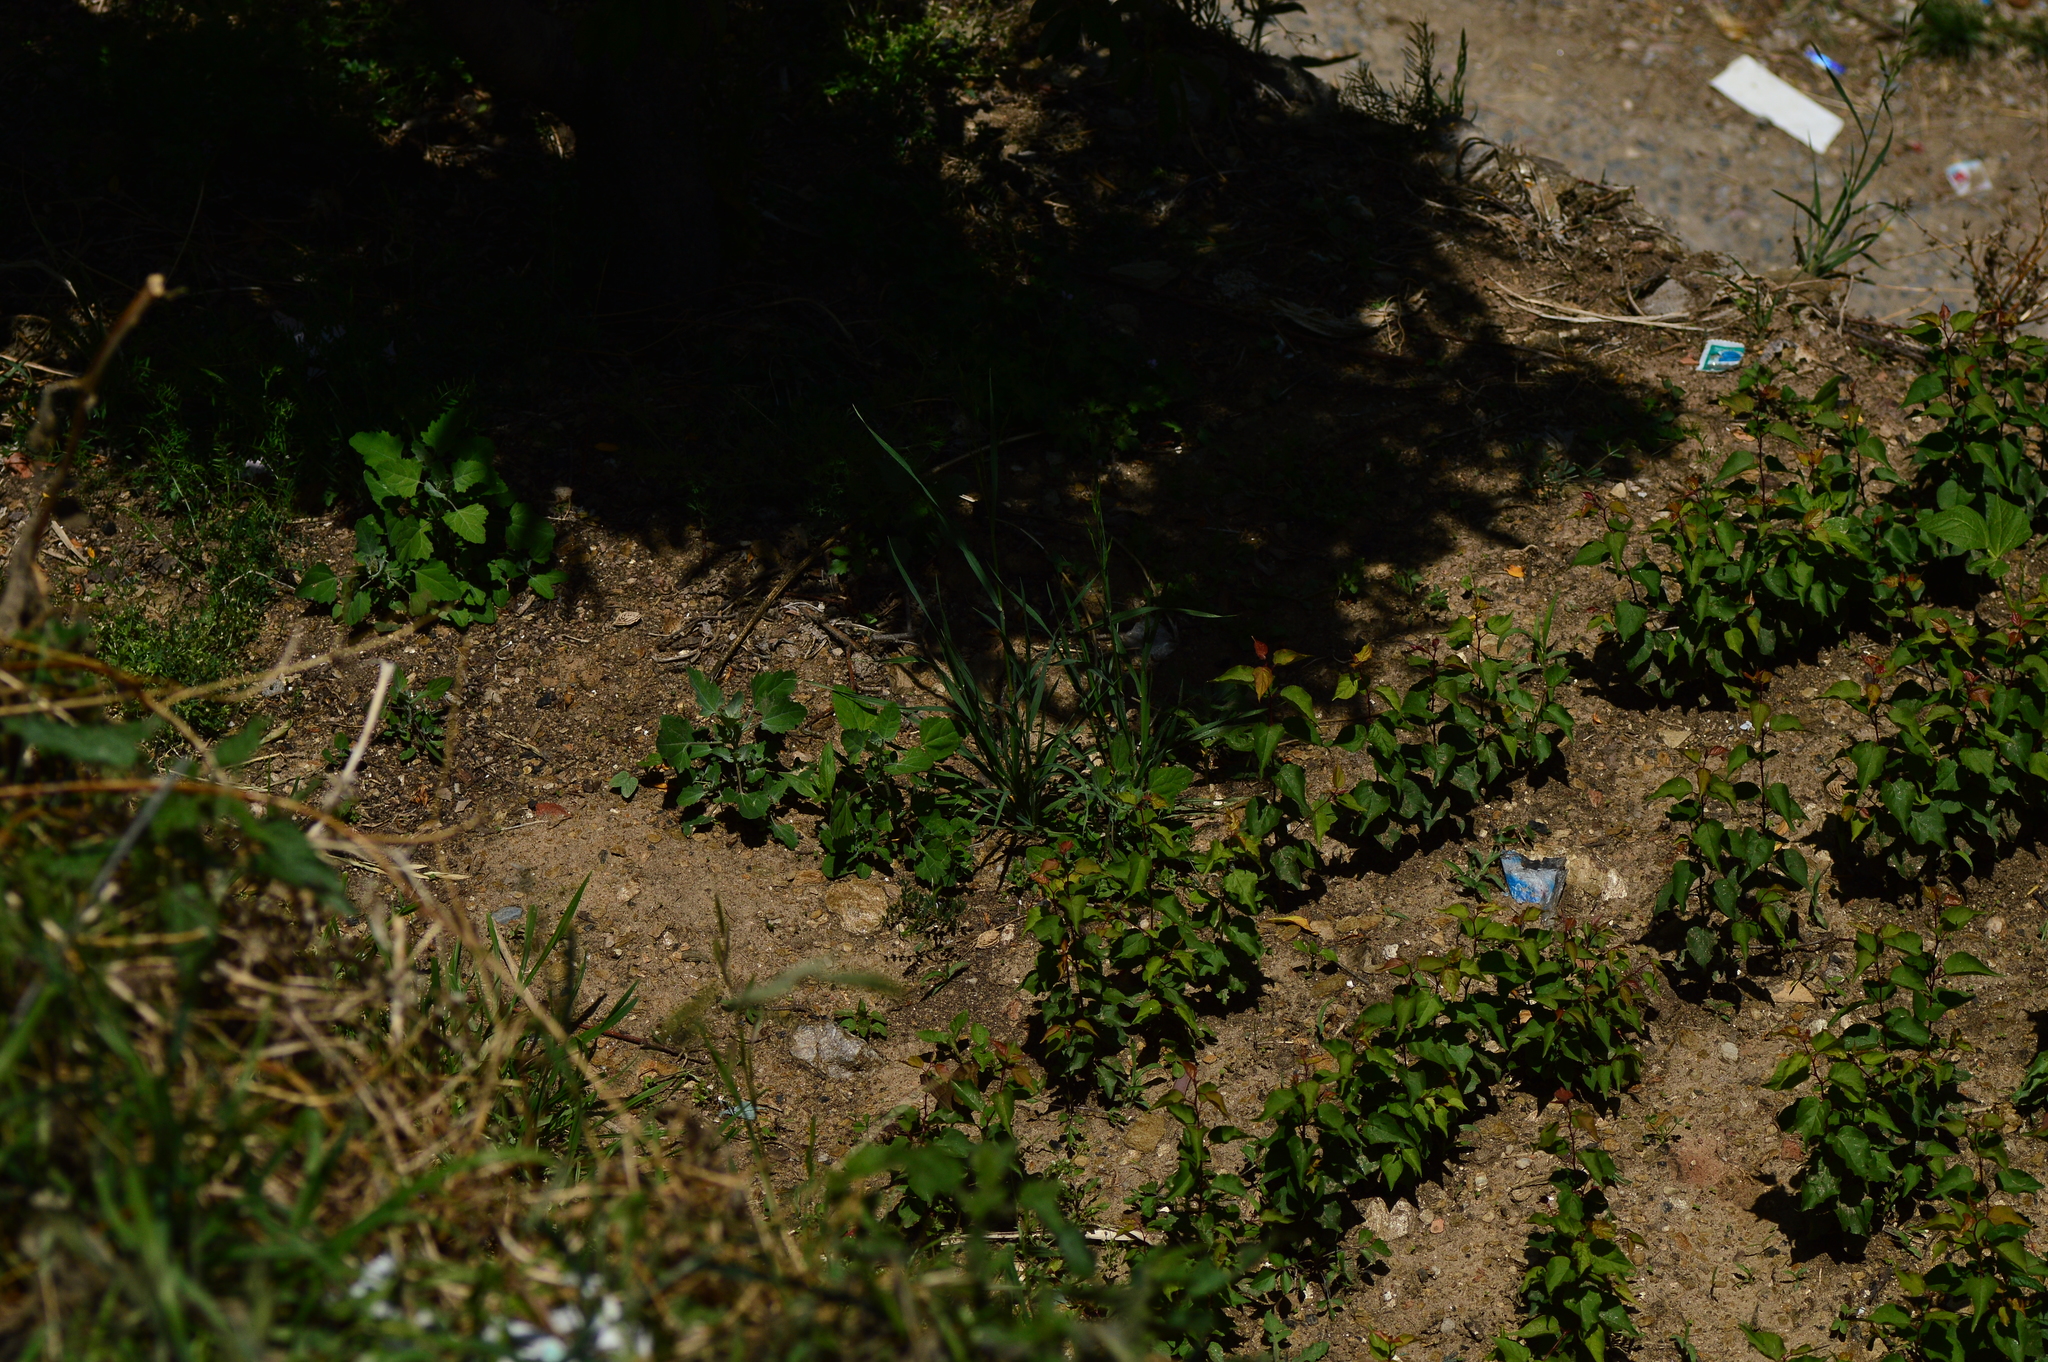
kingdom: Animalia
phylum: Arthropoda
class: Insecta
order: Lepidoptera
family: Nymphalidae
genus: Junonia
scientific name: Junonia iphita
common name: Chocolate pansy
